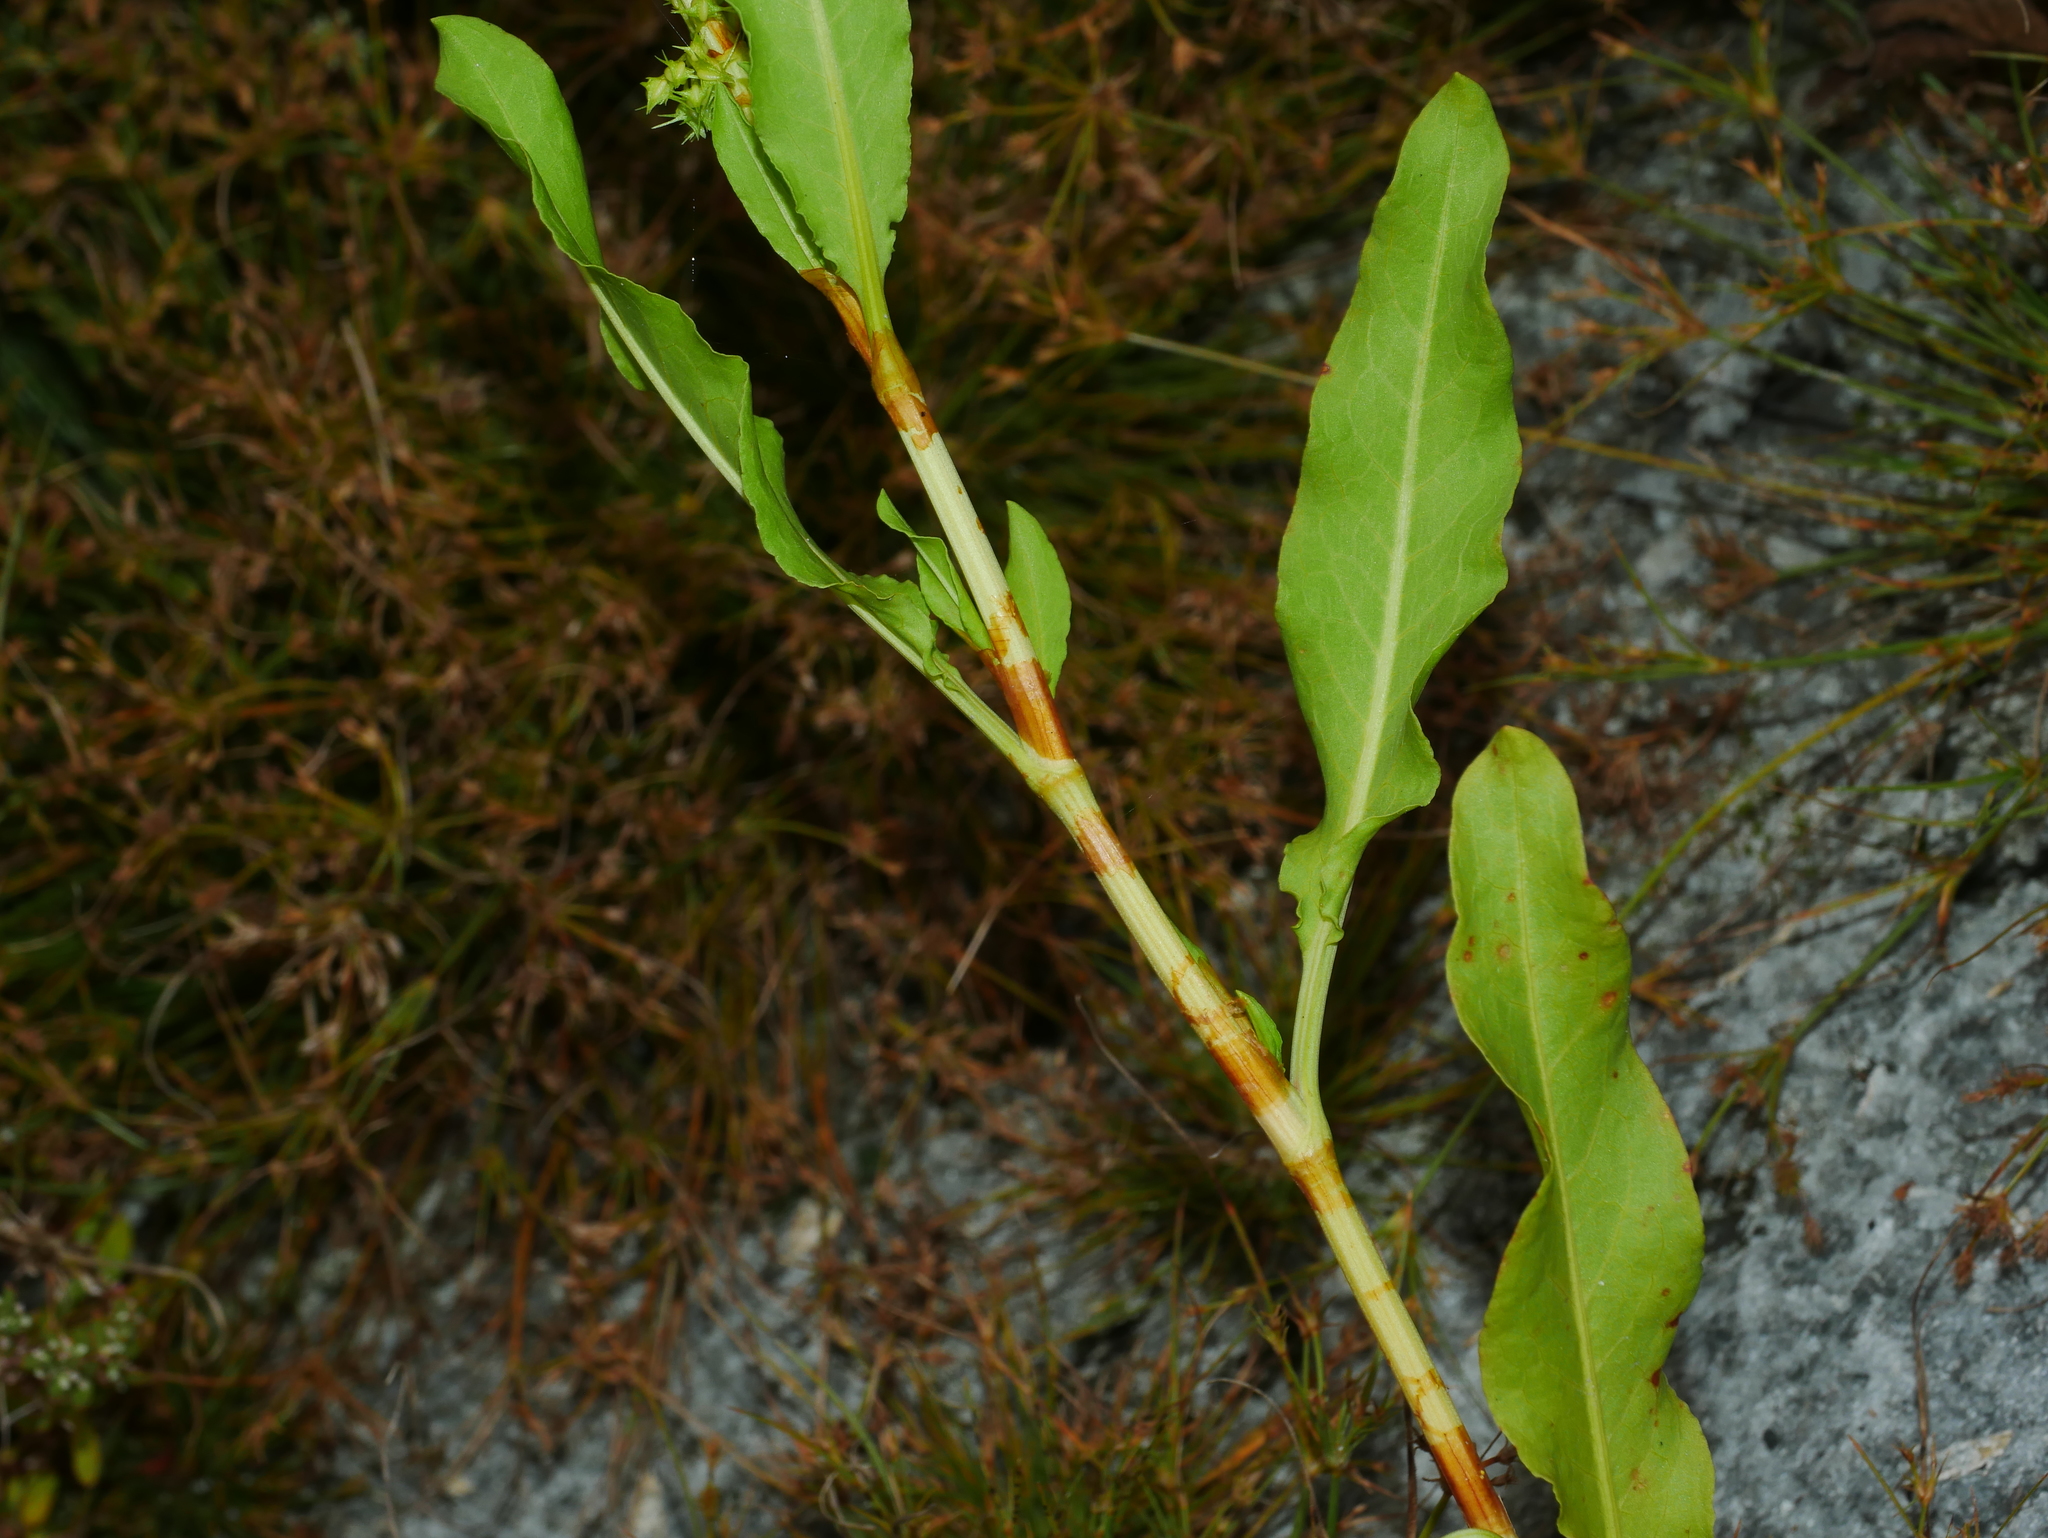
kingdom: Plantae
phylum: Tracheophyta
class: Magnoliopsida
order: Caryophyllales
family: Polygonaceae
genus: Rumex
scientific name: Rumex trisetifer
